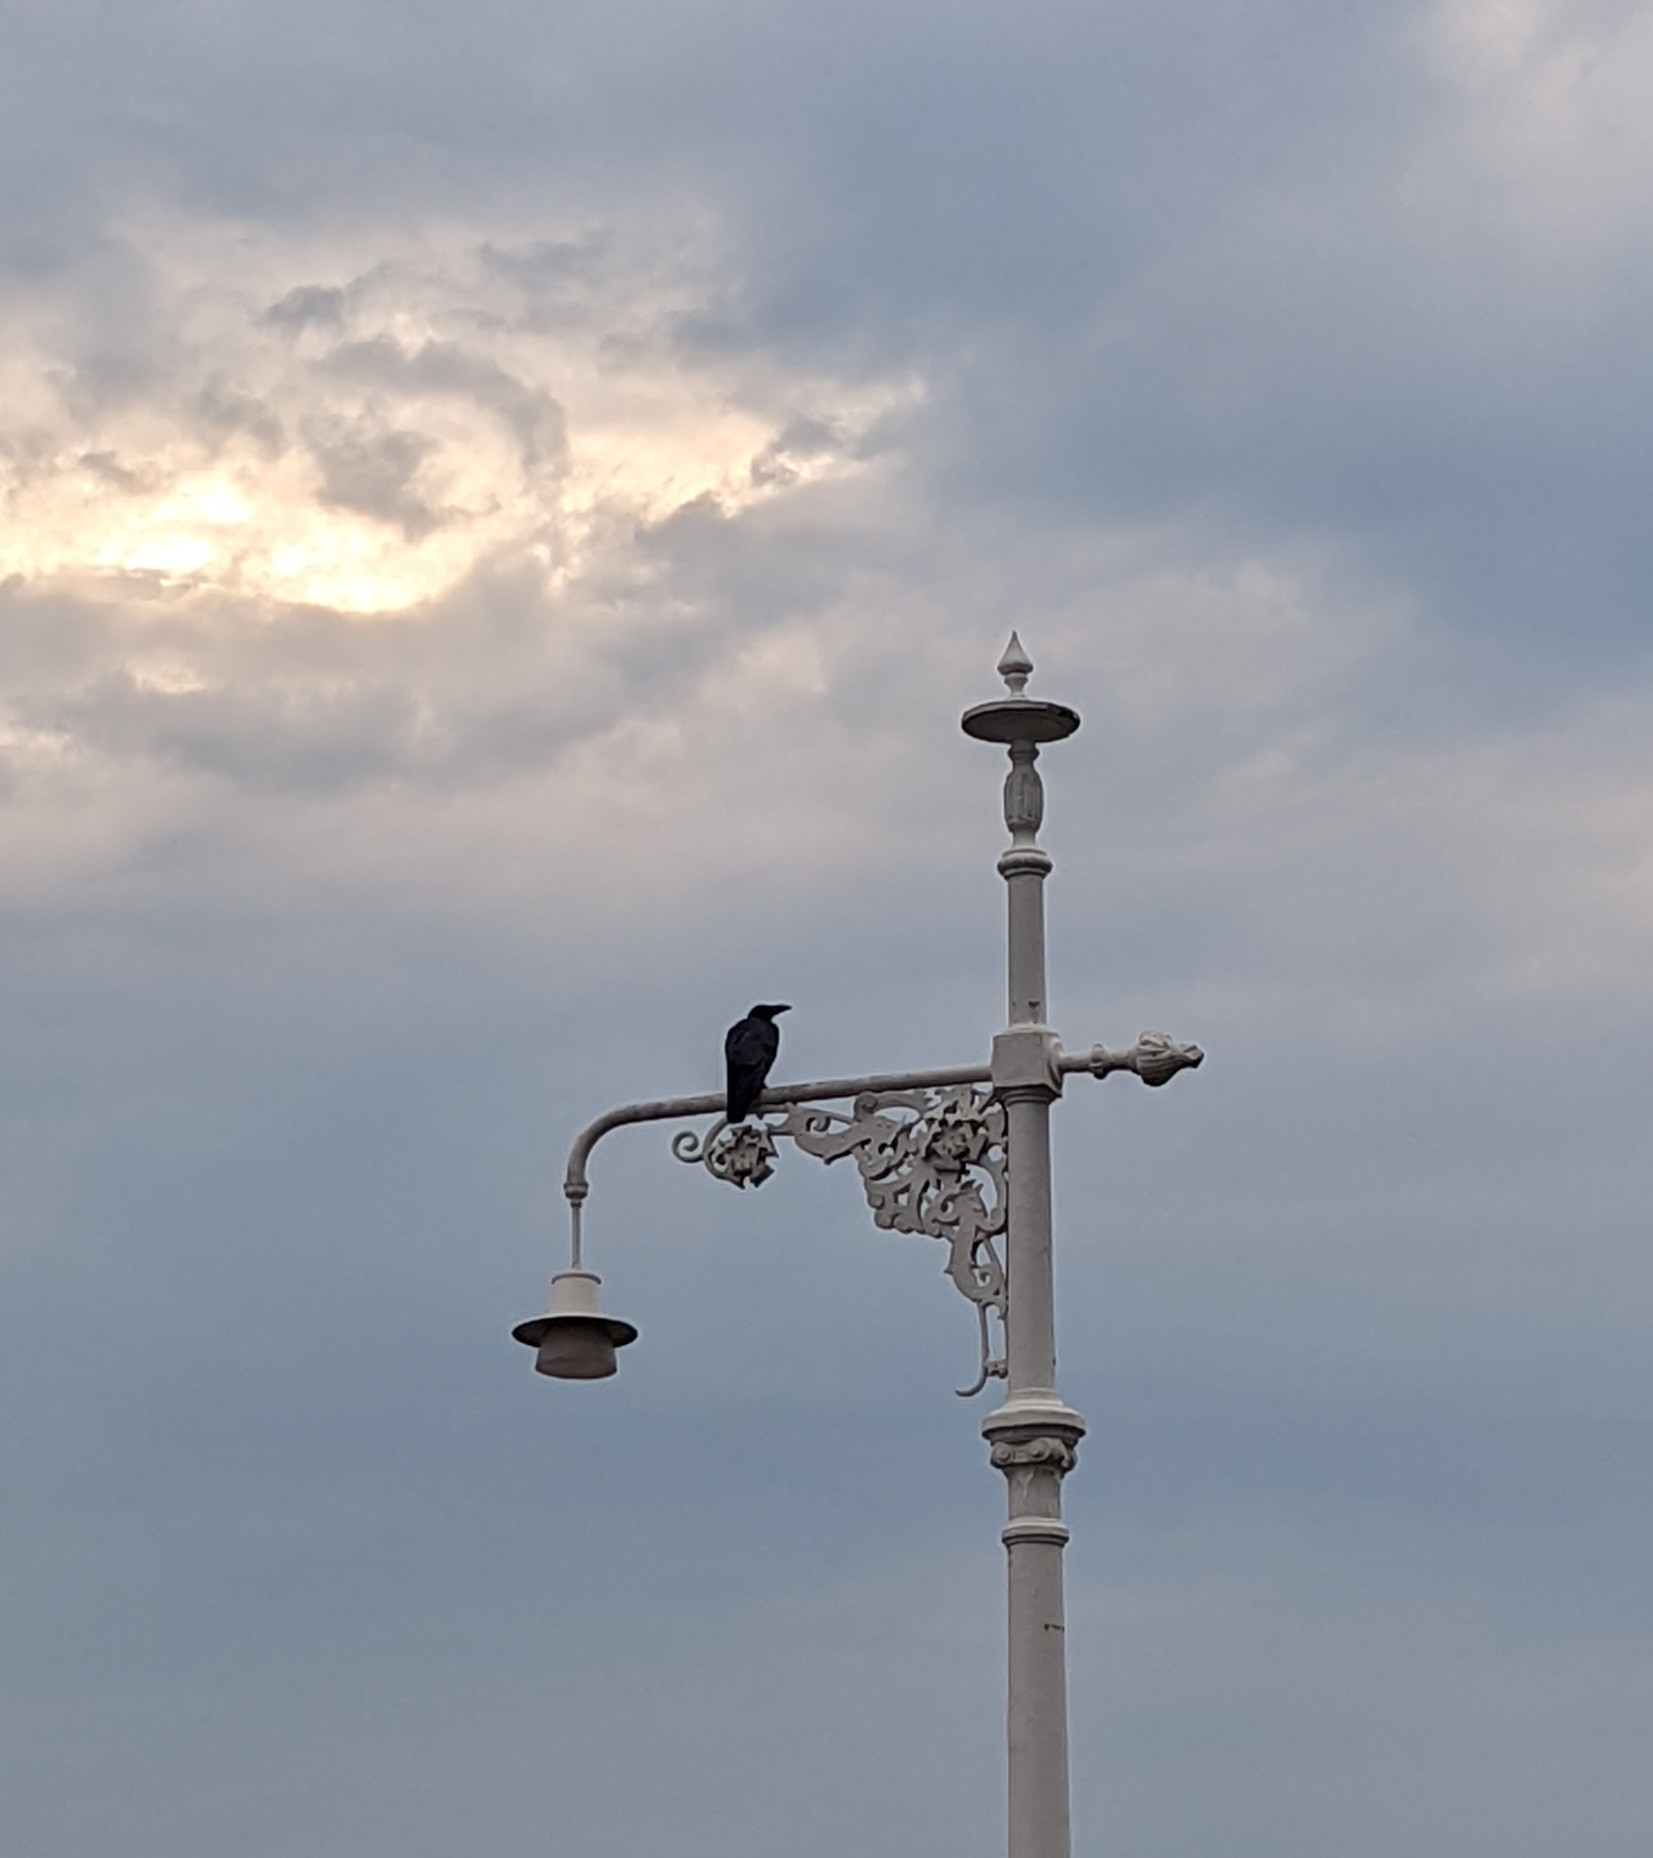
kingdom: Animalia
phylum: Chordata
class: Aves
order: Passeriformes
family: Corvidae
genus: Corvus
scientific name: Corvus macrorhynchos
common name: Large-billed crow
